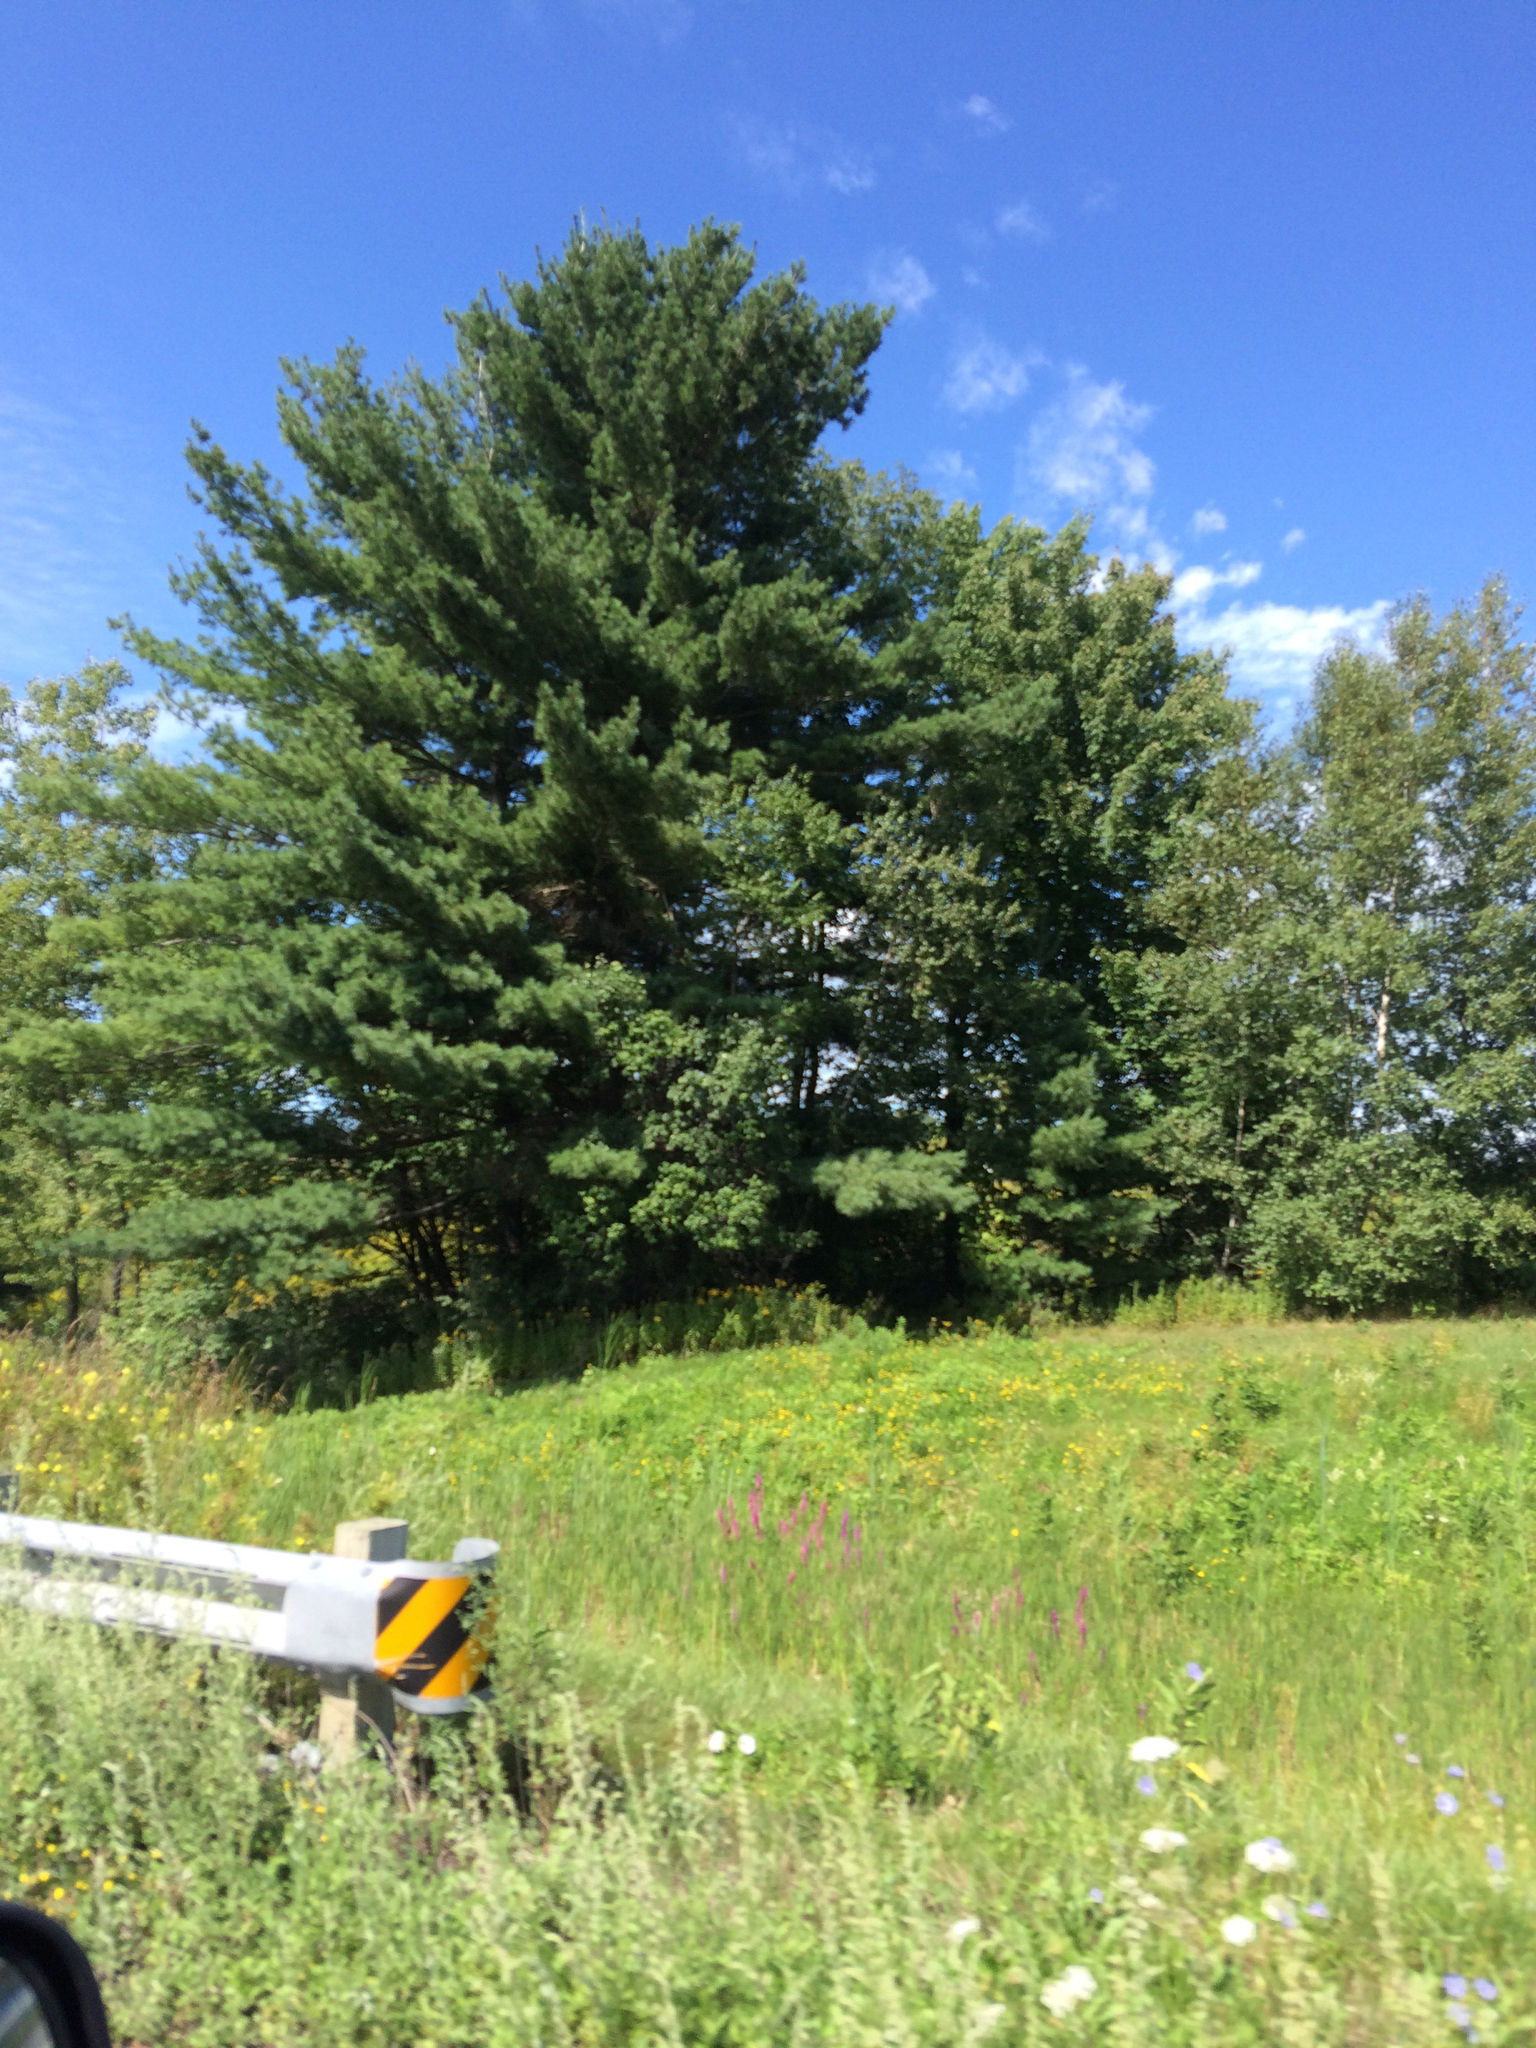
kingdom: Plantae
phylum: Tracheophyta
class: Pinopsida
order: Pinales
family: Pinaceae
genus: Pinus
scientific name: Pinus strobus
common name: Weymouth pine
